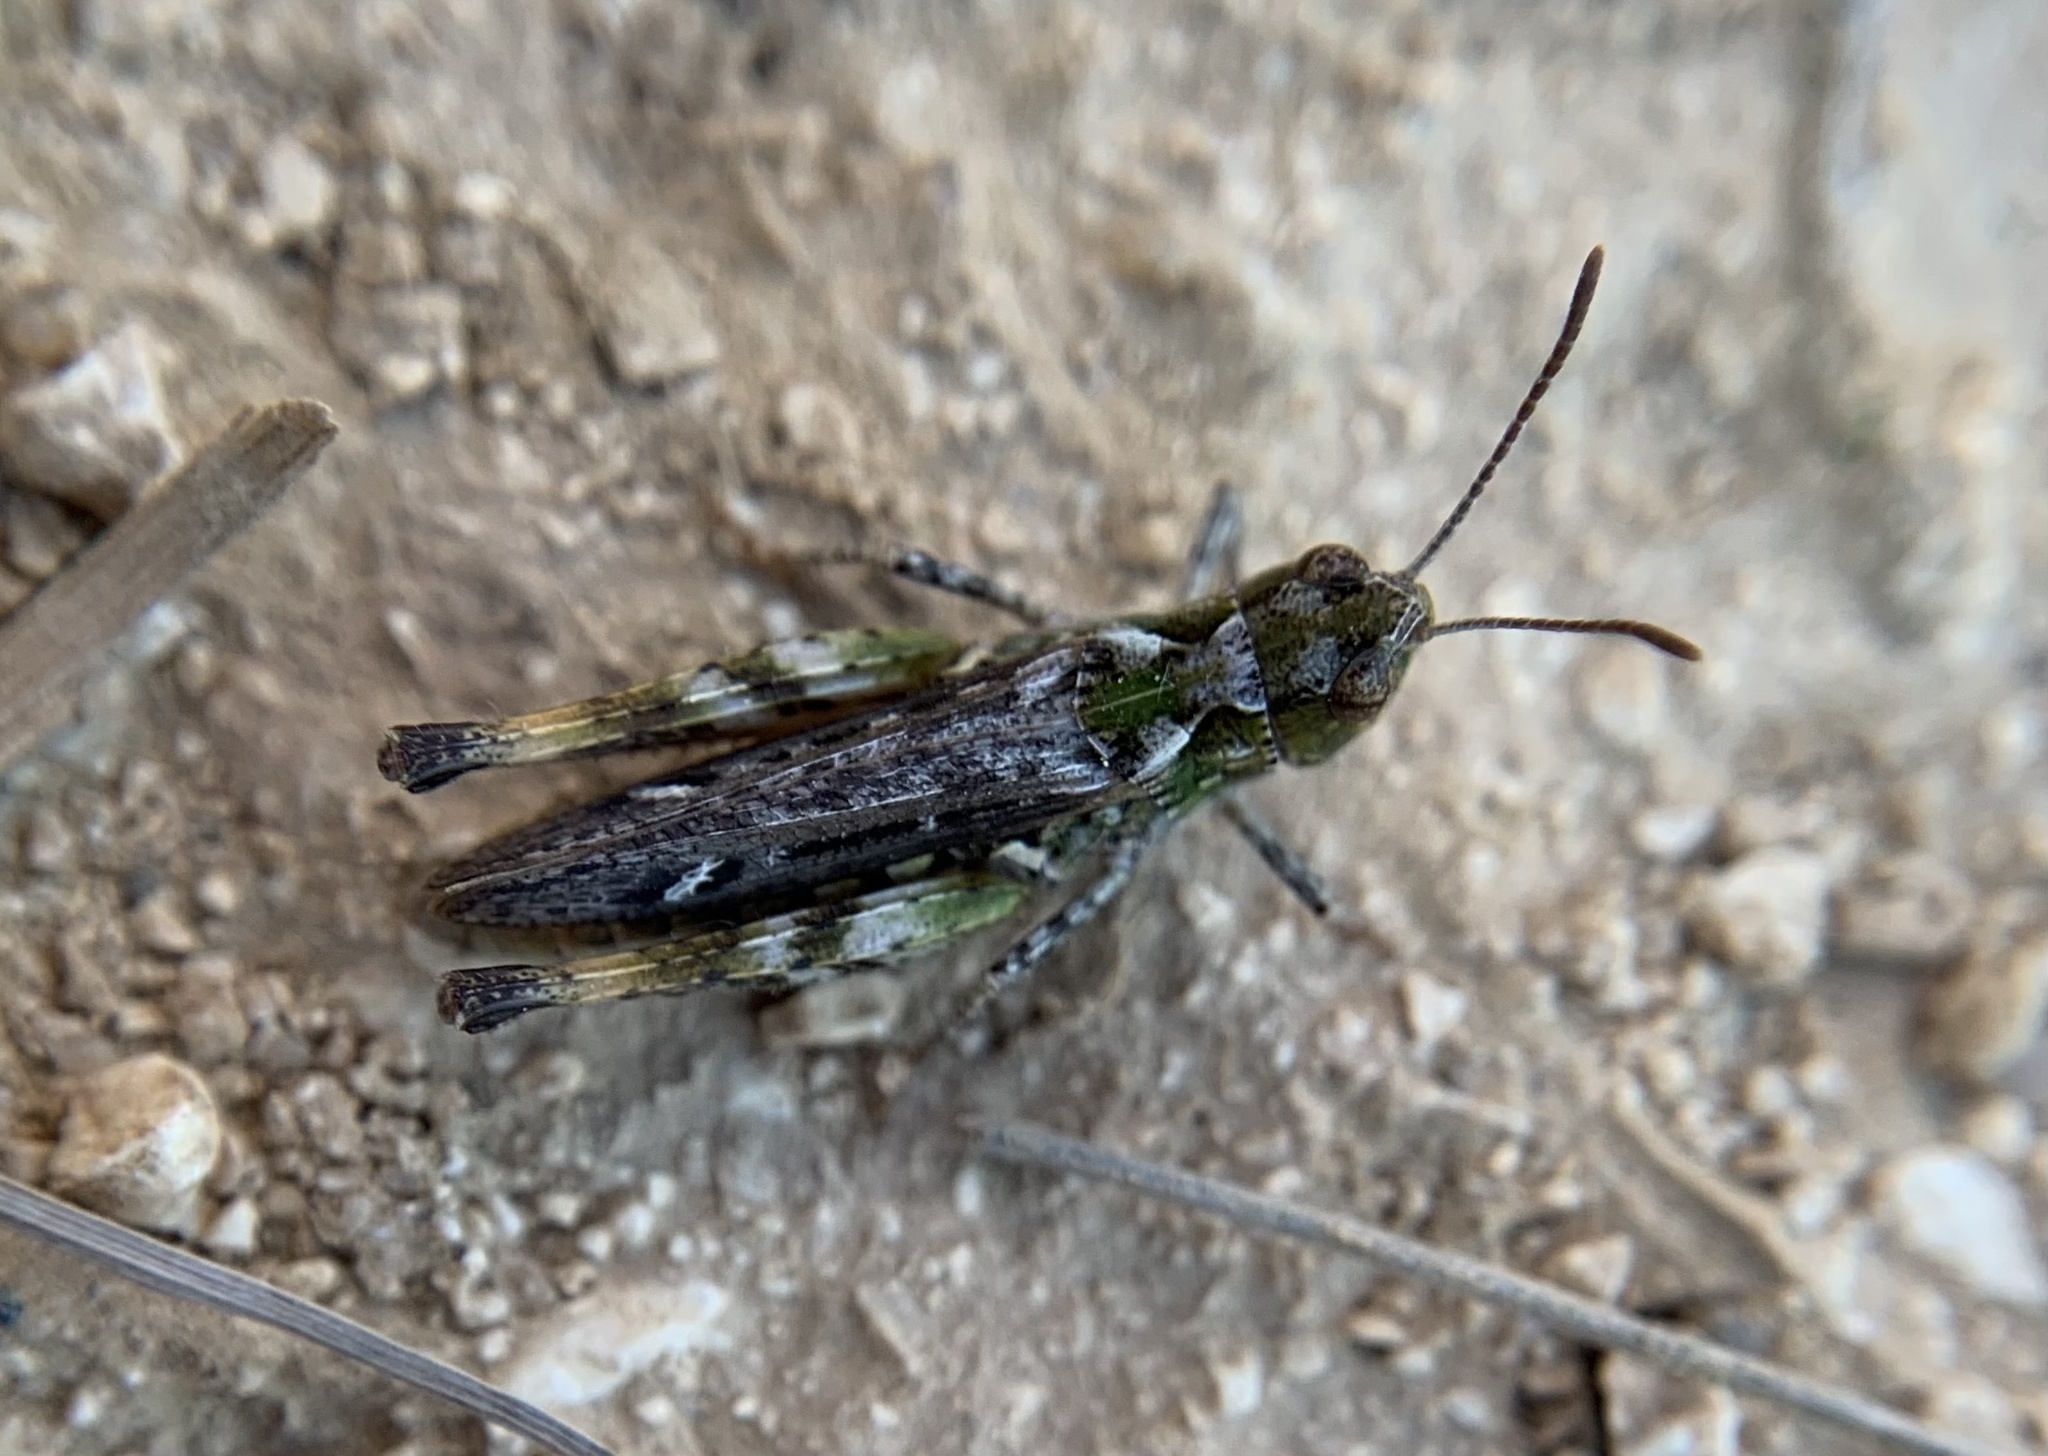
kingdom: Animalia
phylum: Arthropoda
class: Insecta
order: Orthoptera
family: Acrididae
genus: Myrmeleotettix
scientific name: Myrmeleotettix maculatus
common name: Mottled grasshopper
